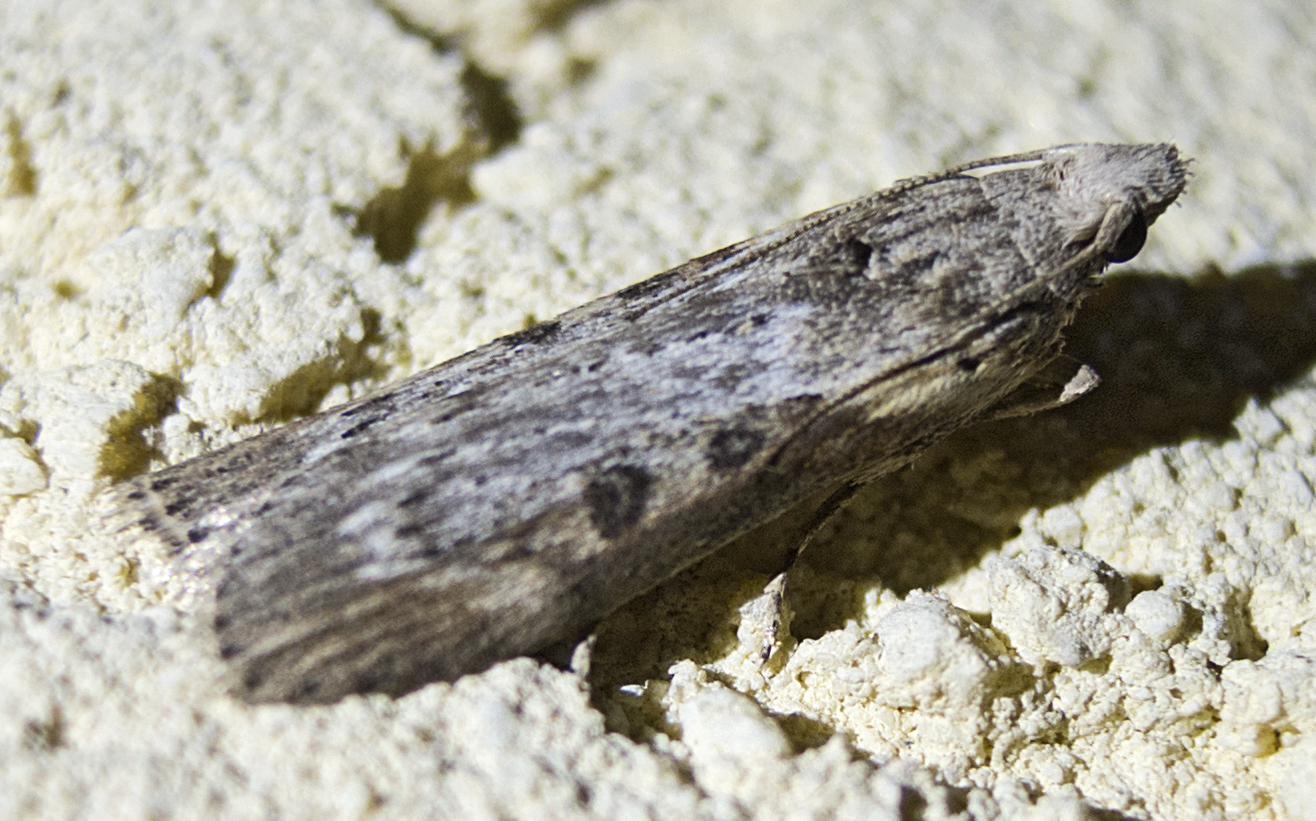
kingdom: Animalia
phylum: Arthropoda
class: Insecta
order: Lepidoptera
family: Pyralidae
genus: Lamoria
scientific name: Lamoria anella
